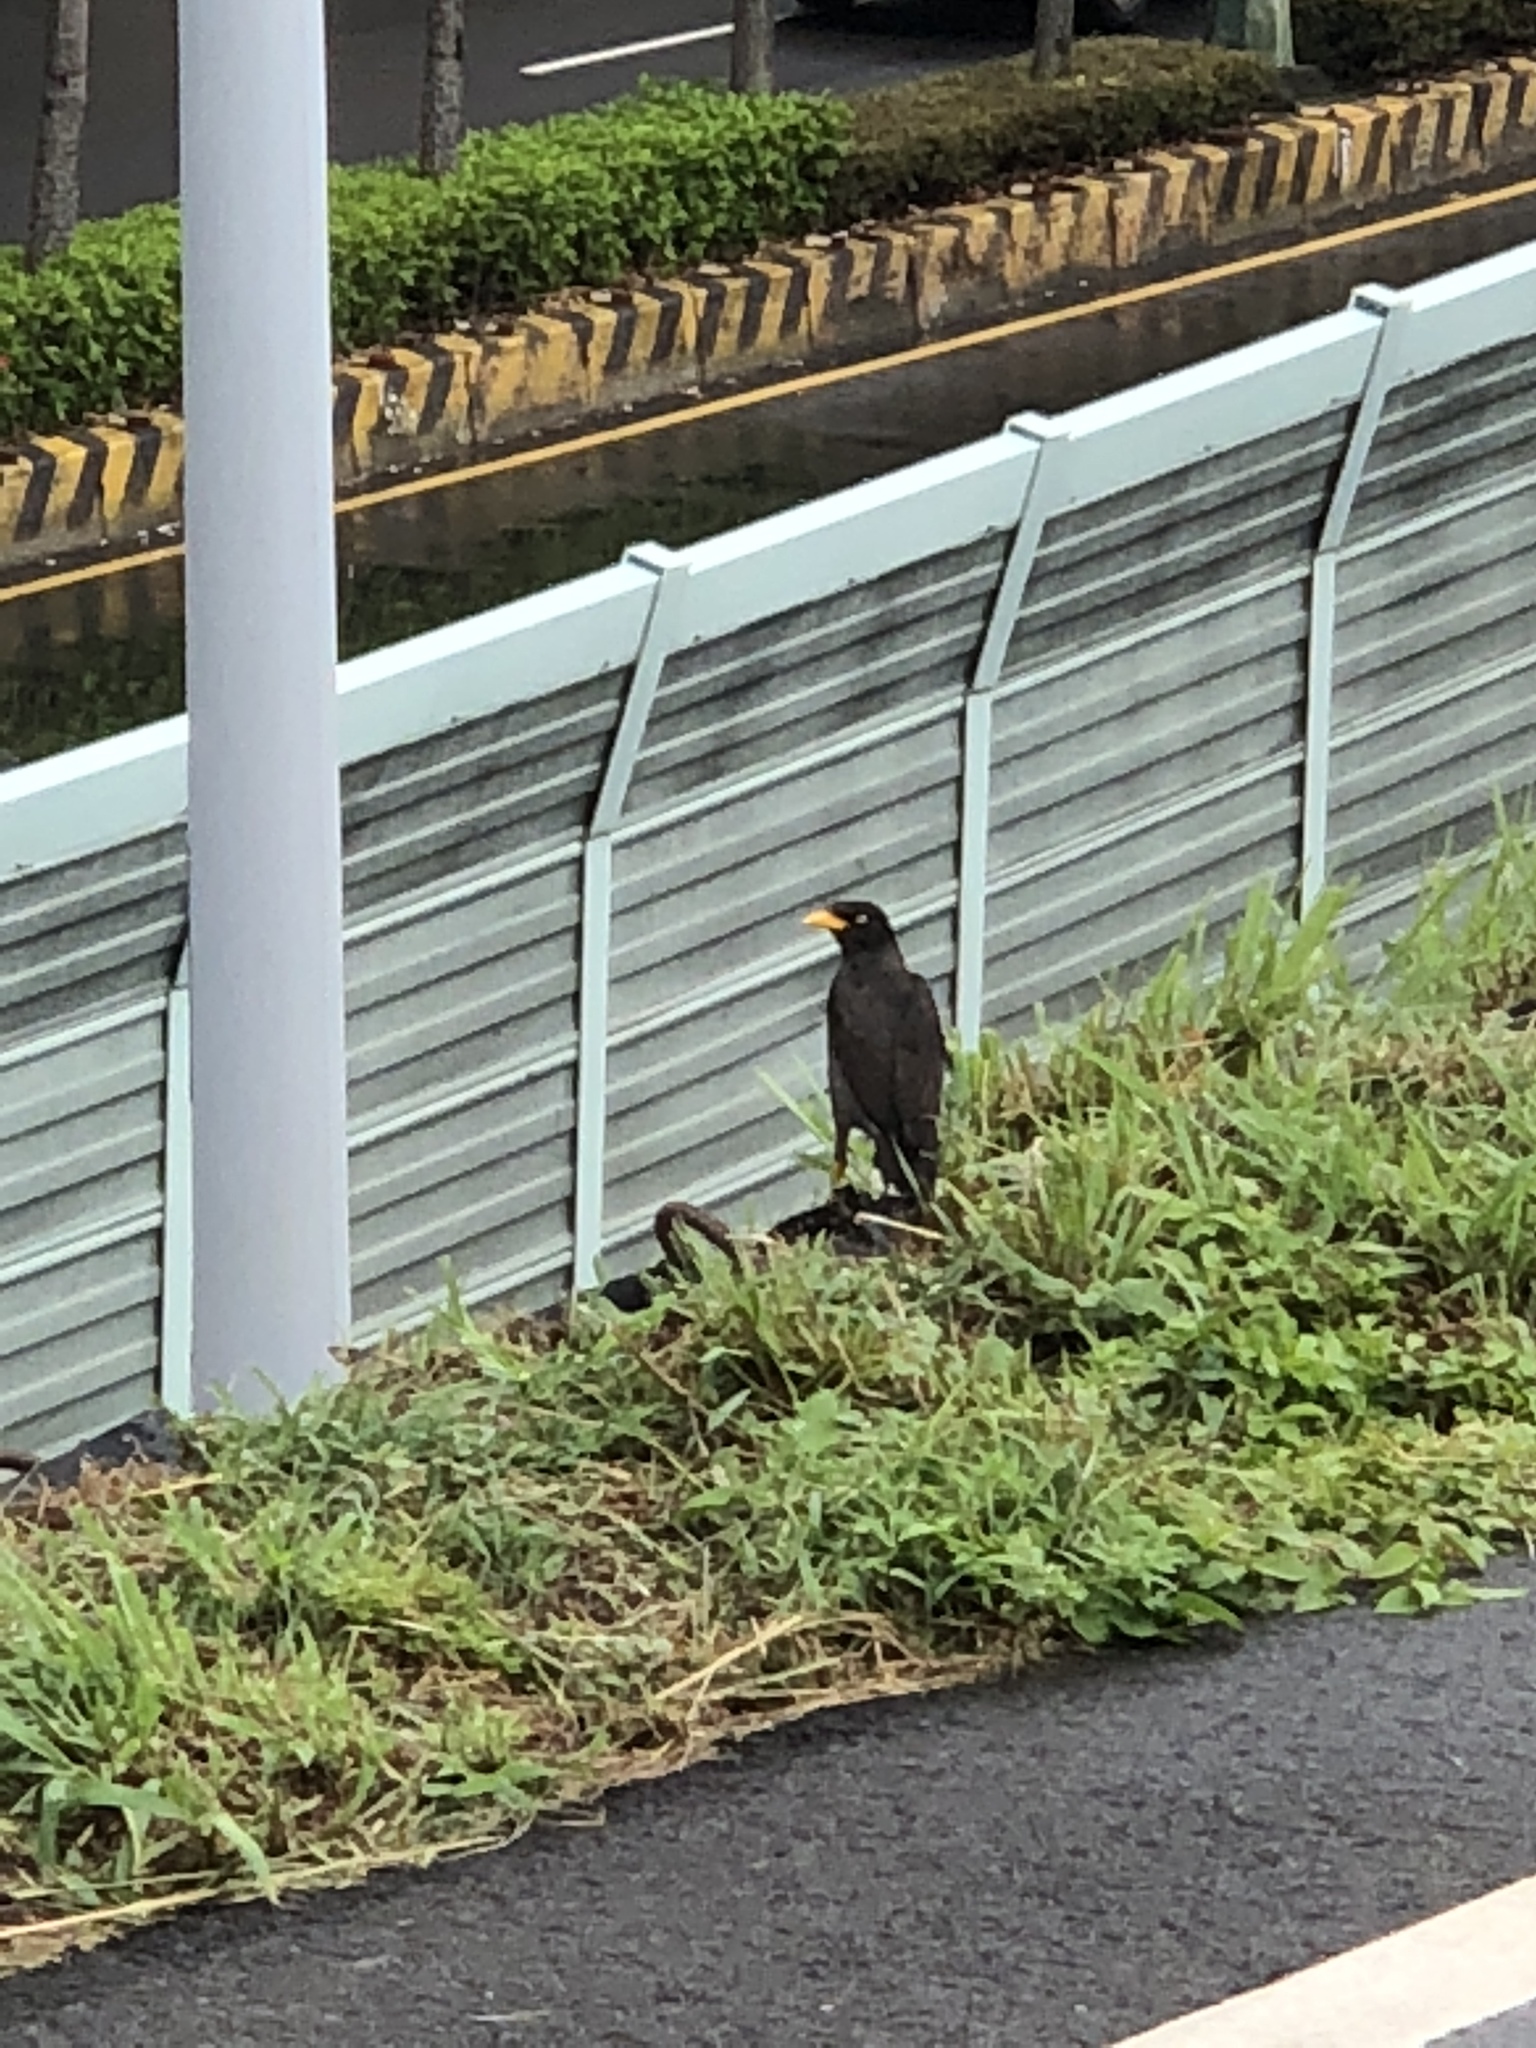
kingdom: Animalia
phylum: Chordata
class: Aves
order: Passeriformes
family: Sturnidae
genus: Acridotheres
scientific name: Acridotheres javanicus
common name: Javan myna
